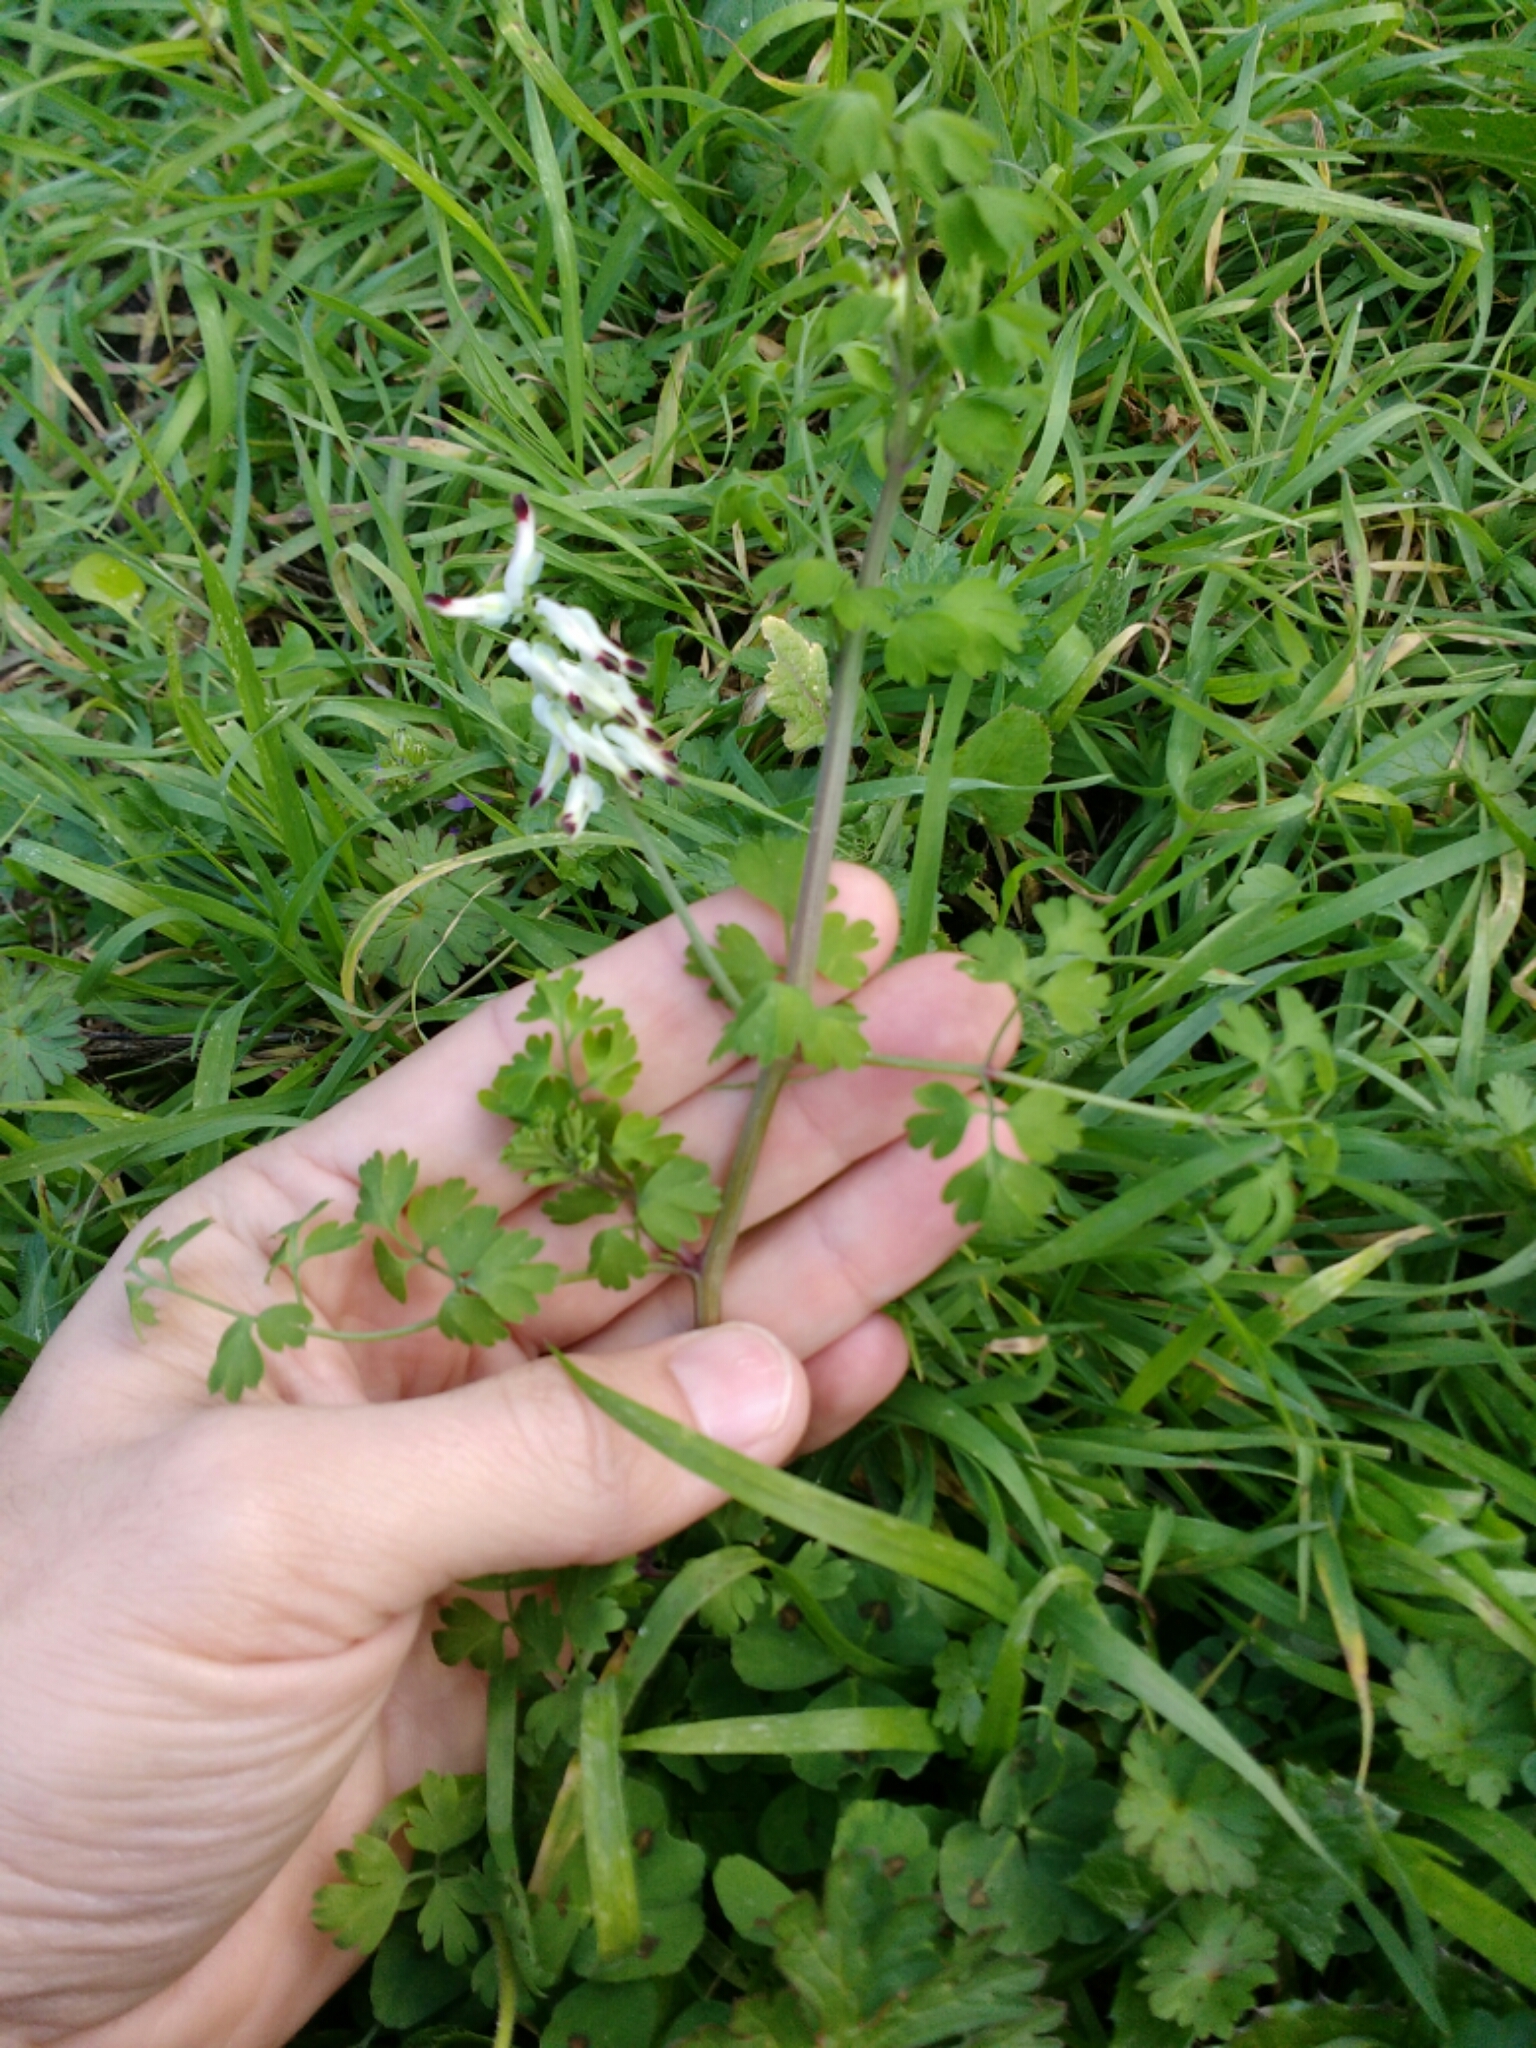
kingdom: Plantae
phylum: Tracheophyta
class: Magnoliopsida
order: Ranunculales
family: Papaveraceae
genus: Fumaria
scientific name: Fumaria capreolata
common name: White ramping-fumitory
